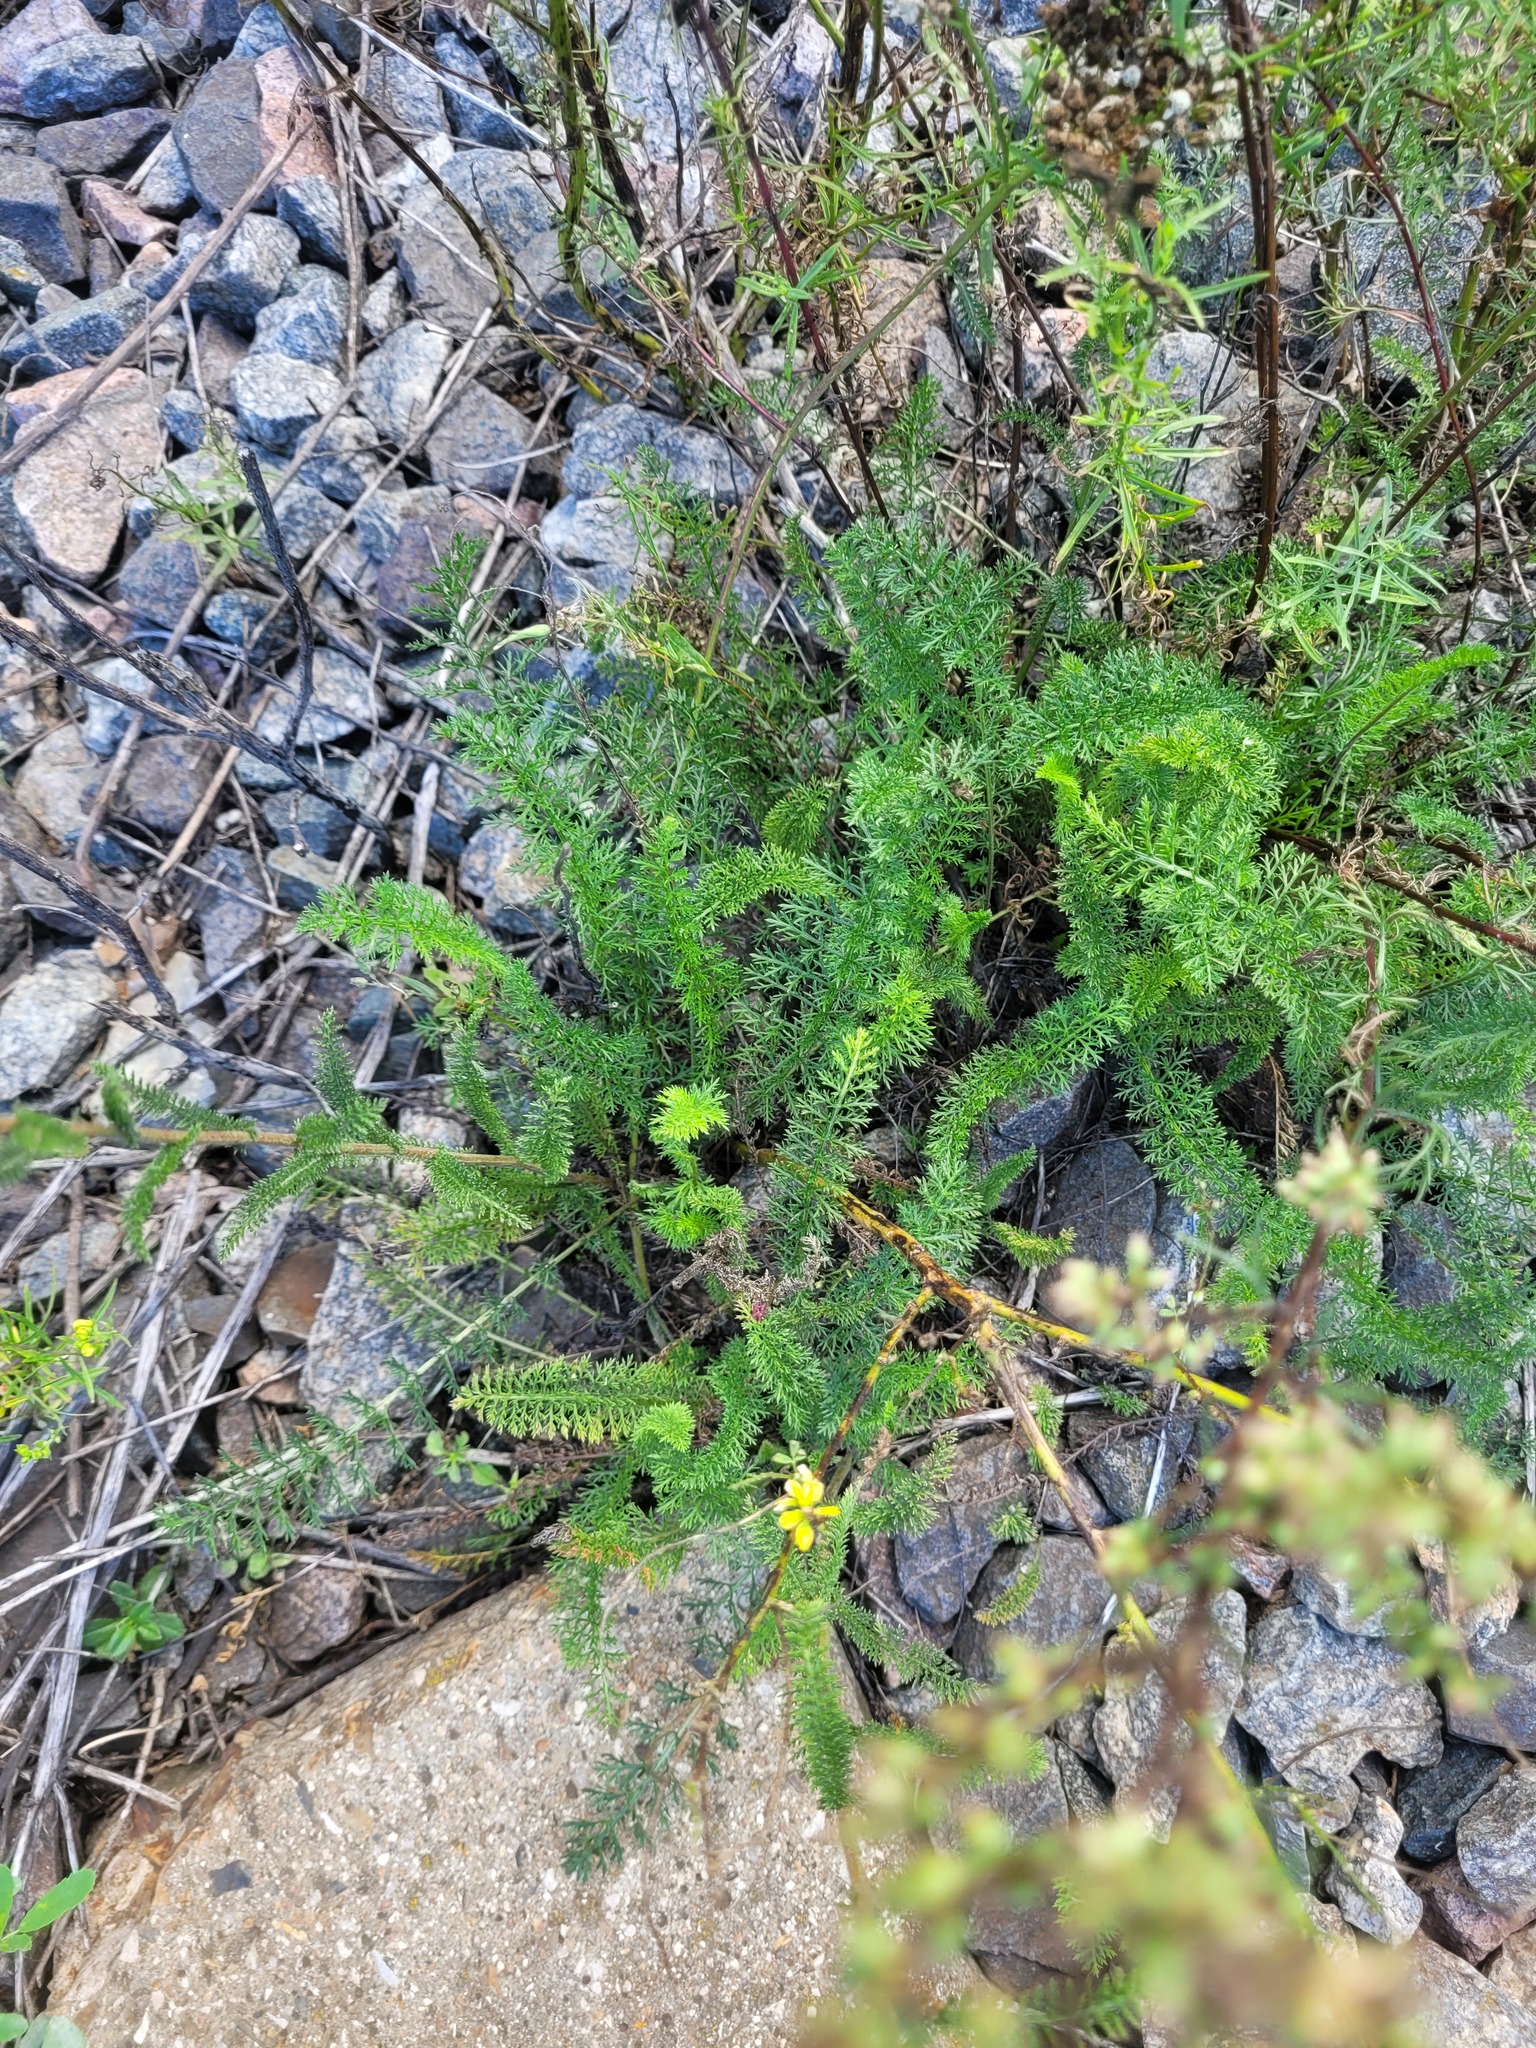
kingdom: Plantae
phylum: Tracheophyta
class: Magnoliopsida
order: Asterales
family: Asteraceae
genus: Achillea
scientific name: Achillea millefolium
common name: Yarrow
